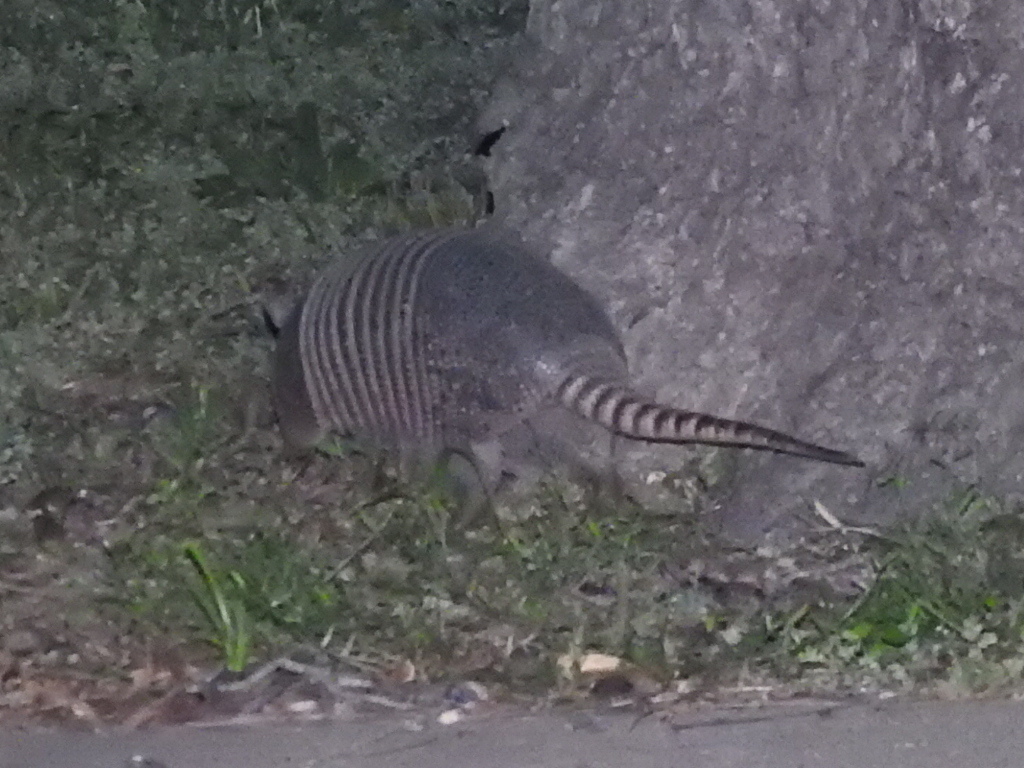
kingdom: Animalia
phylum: Chordata
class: Mammalia
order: Cingulata
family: Dasypodidae
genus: Dasypus
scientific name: Dasypus novemcinctus
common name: Nine-banded armadillo
